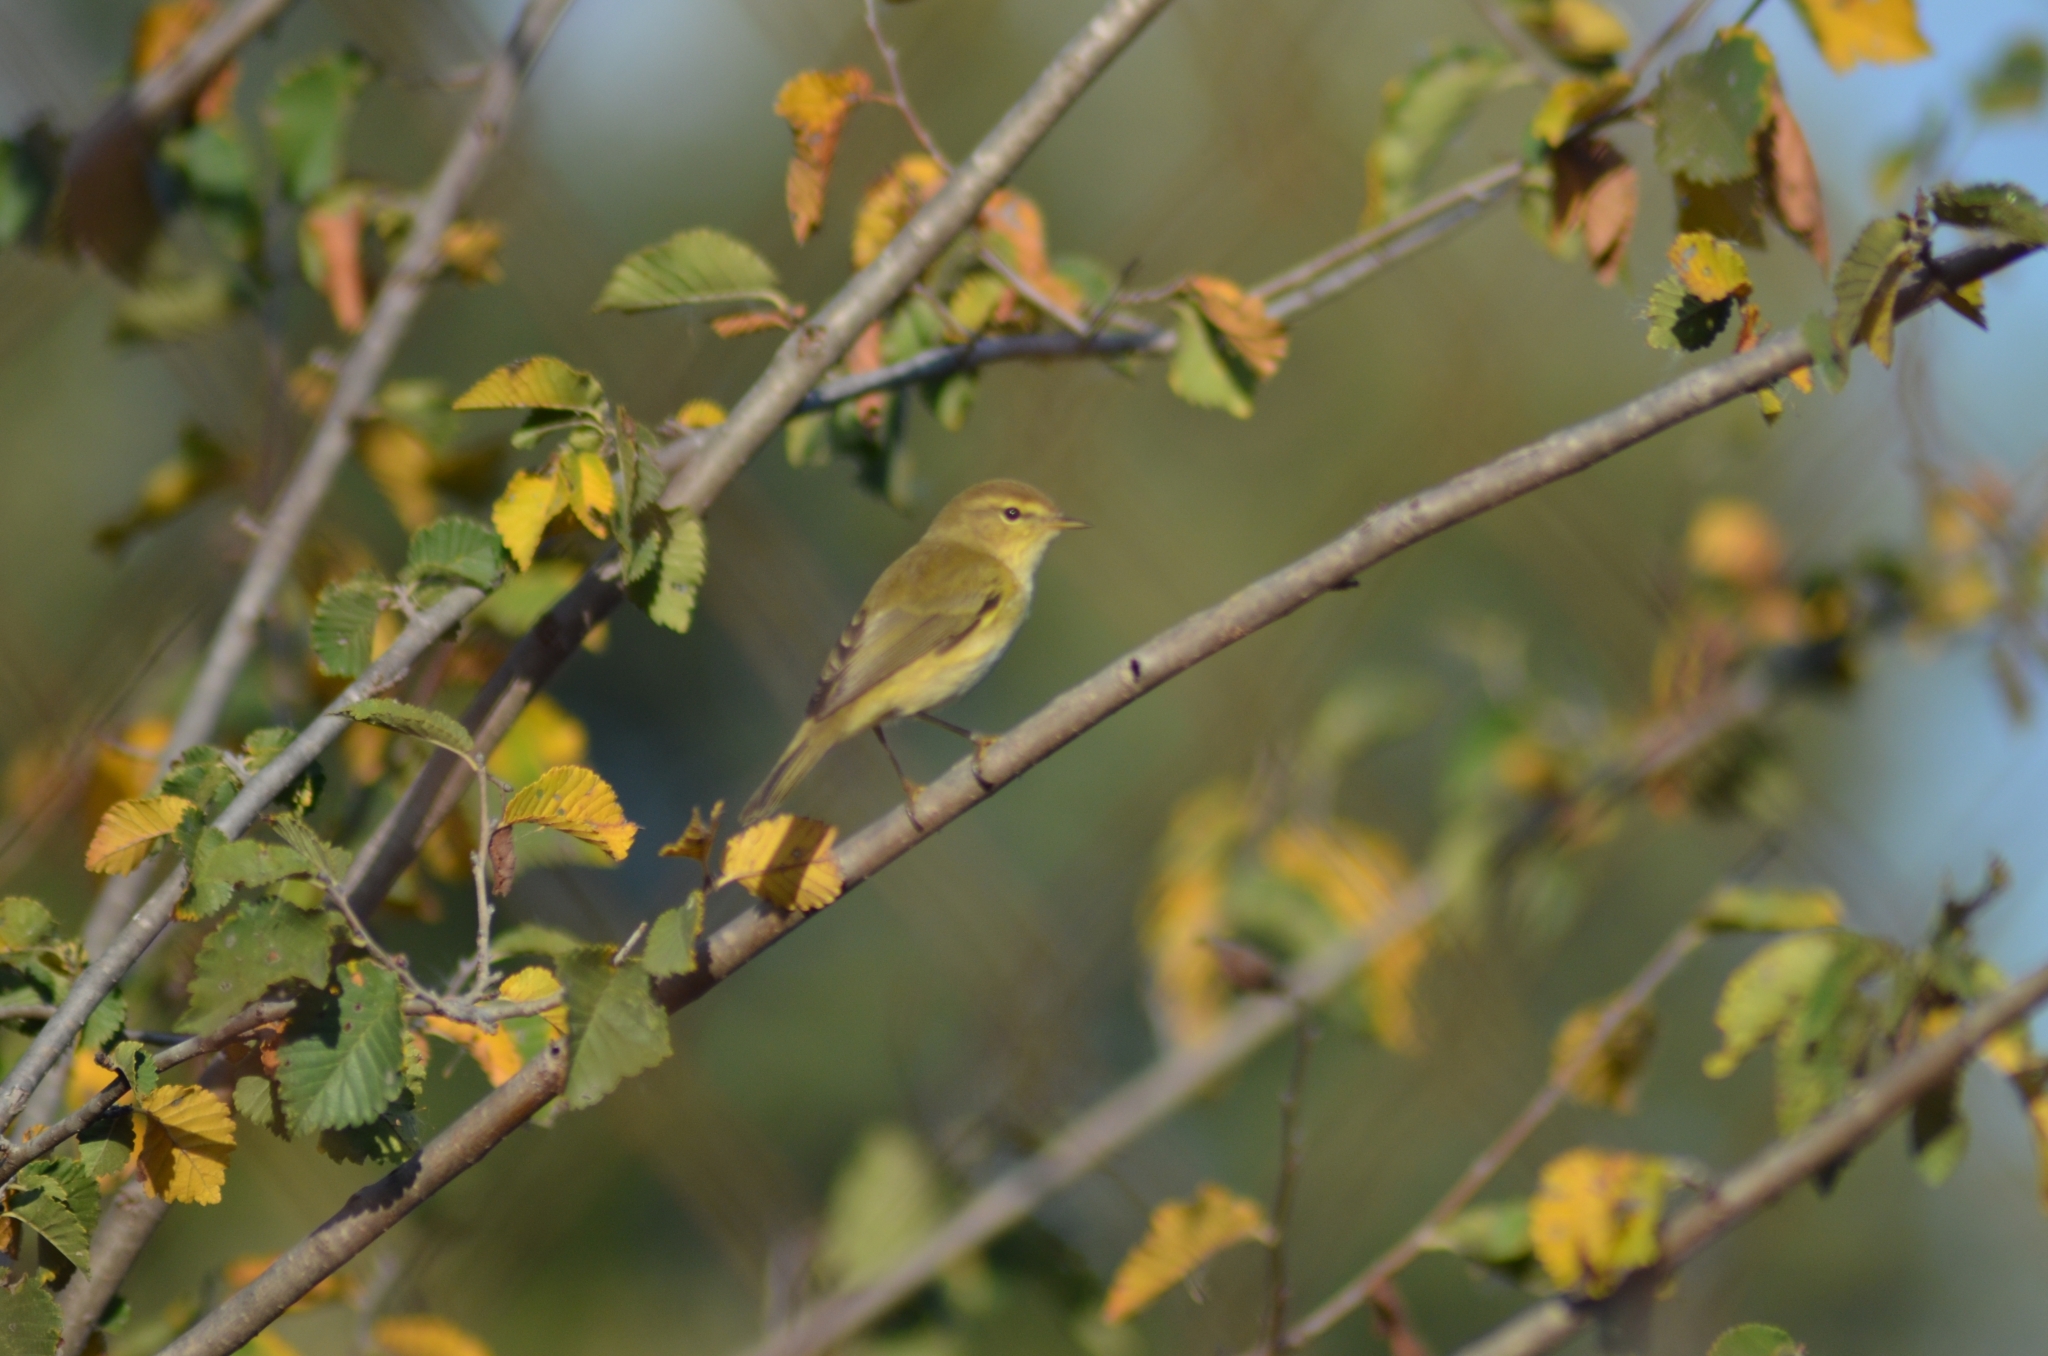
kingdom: Animalia
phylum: Chordata
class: Aves
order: Passeriformes
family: Phylloscopidae
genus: Phylloscopus
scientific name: Phylloscopus collybita
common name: Common chiffchaff
